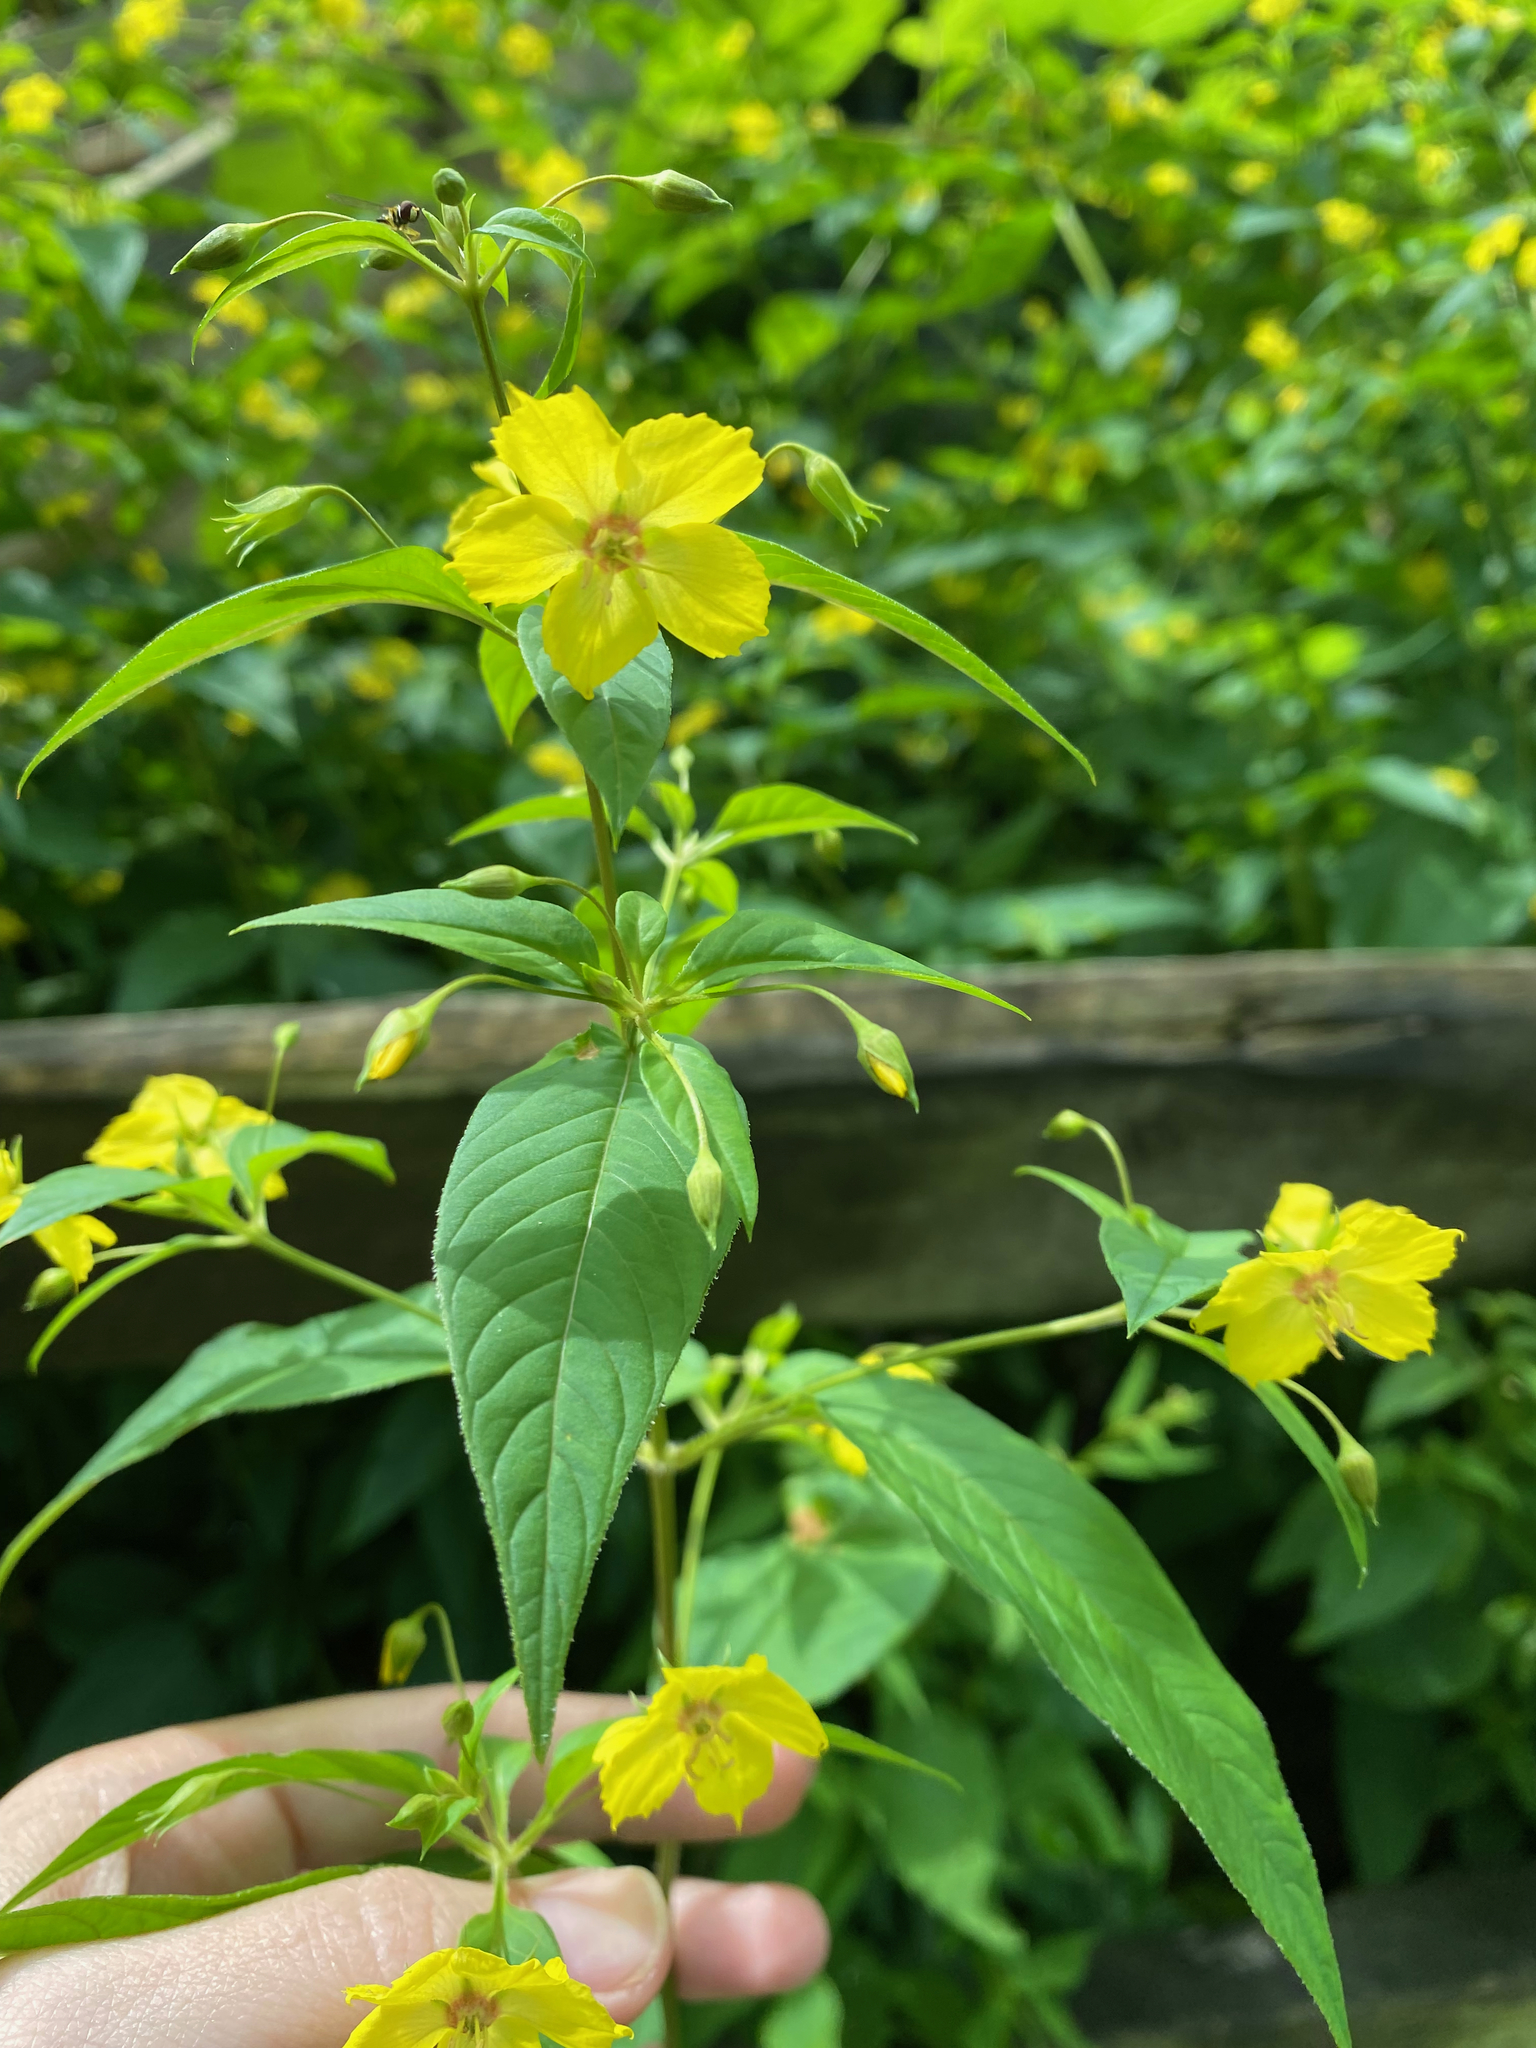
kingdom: Plantae
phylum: Tracheophyta
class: Magnoliopsida
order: Ericales
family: Primulaceae
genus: Lysimachia
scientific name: Lysimachia ciliata
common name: Fringed loosestrife
